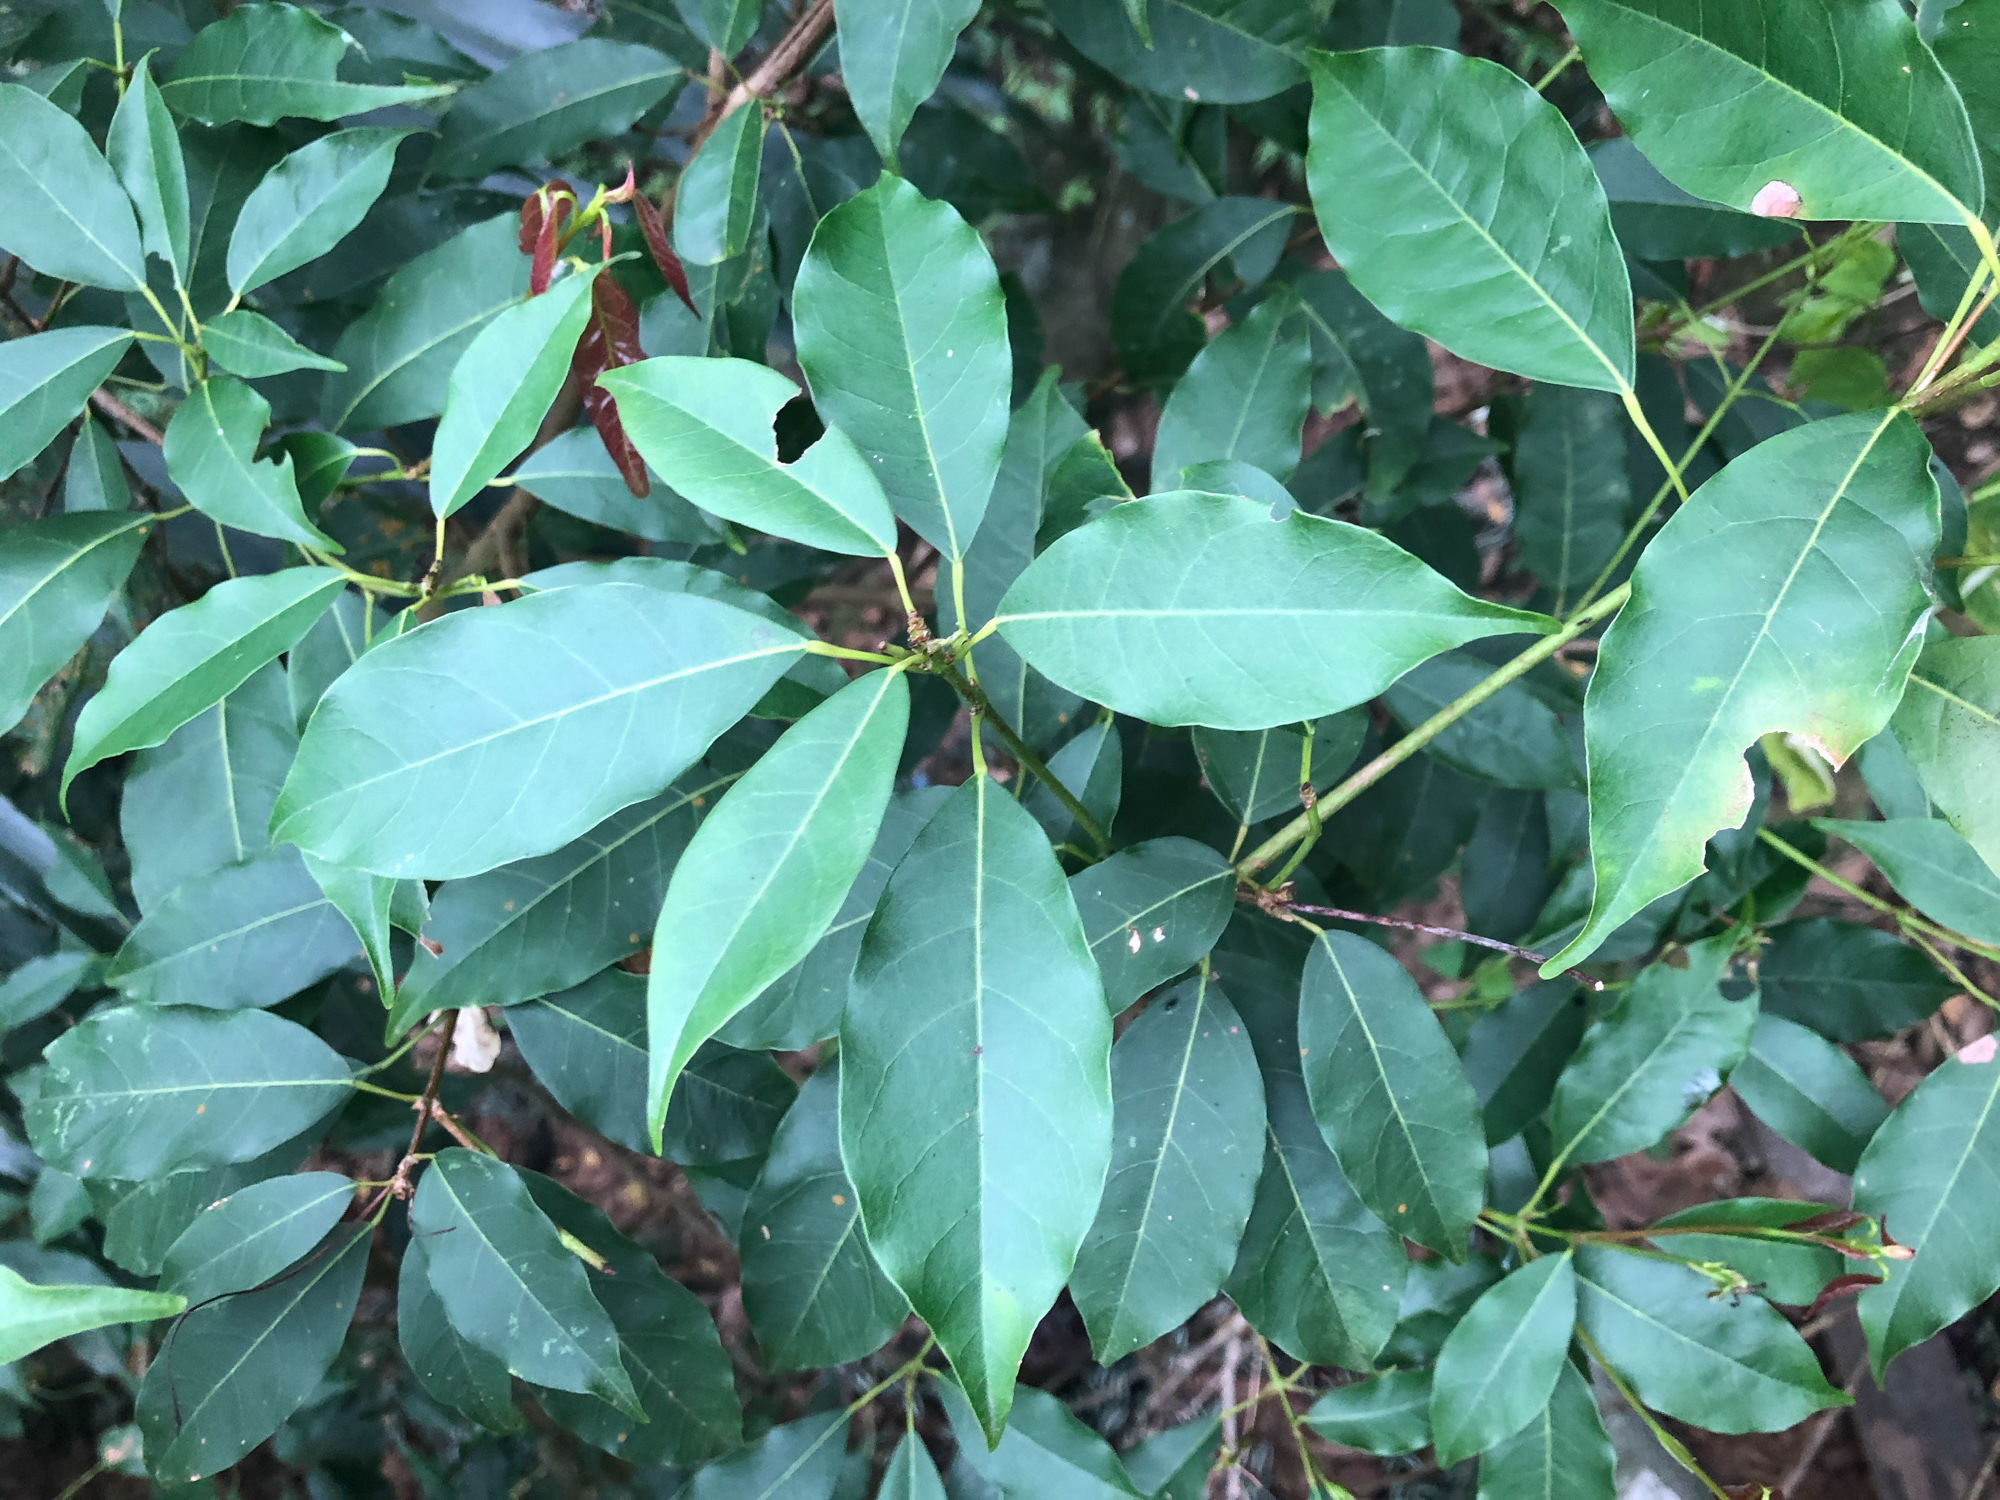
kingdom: Plantae
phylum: Tracheophyta
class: Magnoliopsida
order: Sapindales
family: Sapindaceae
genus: Acer
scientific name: Acer oblongum
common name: Himalayan maple
